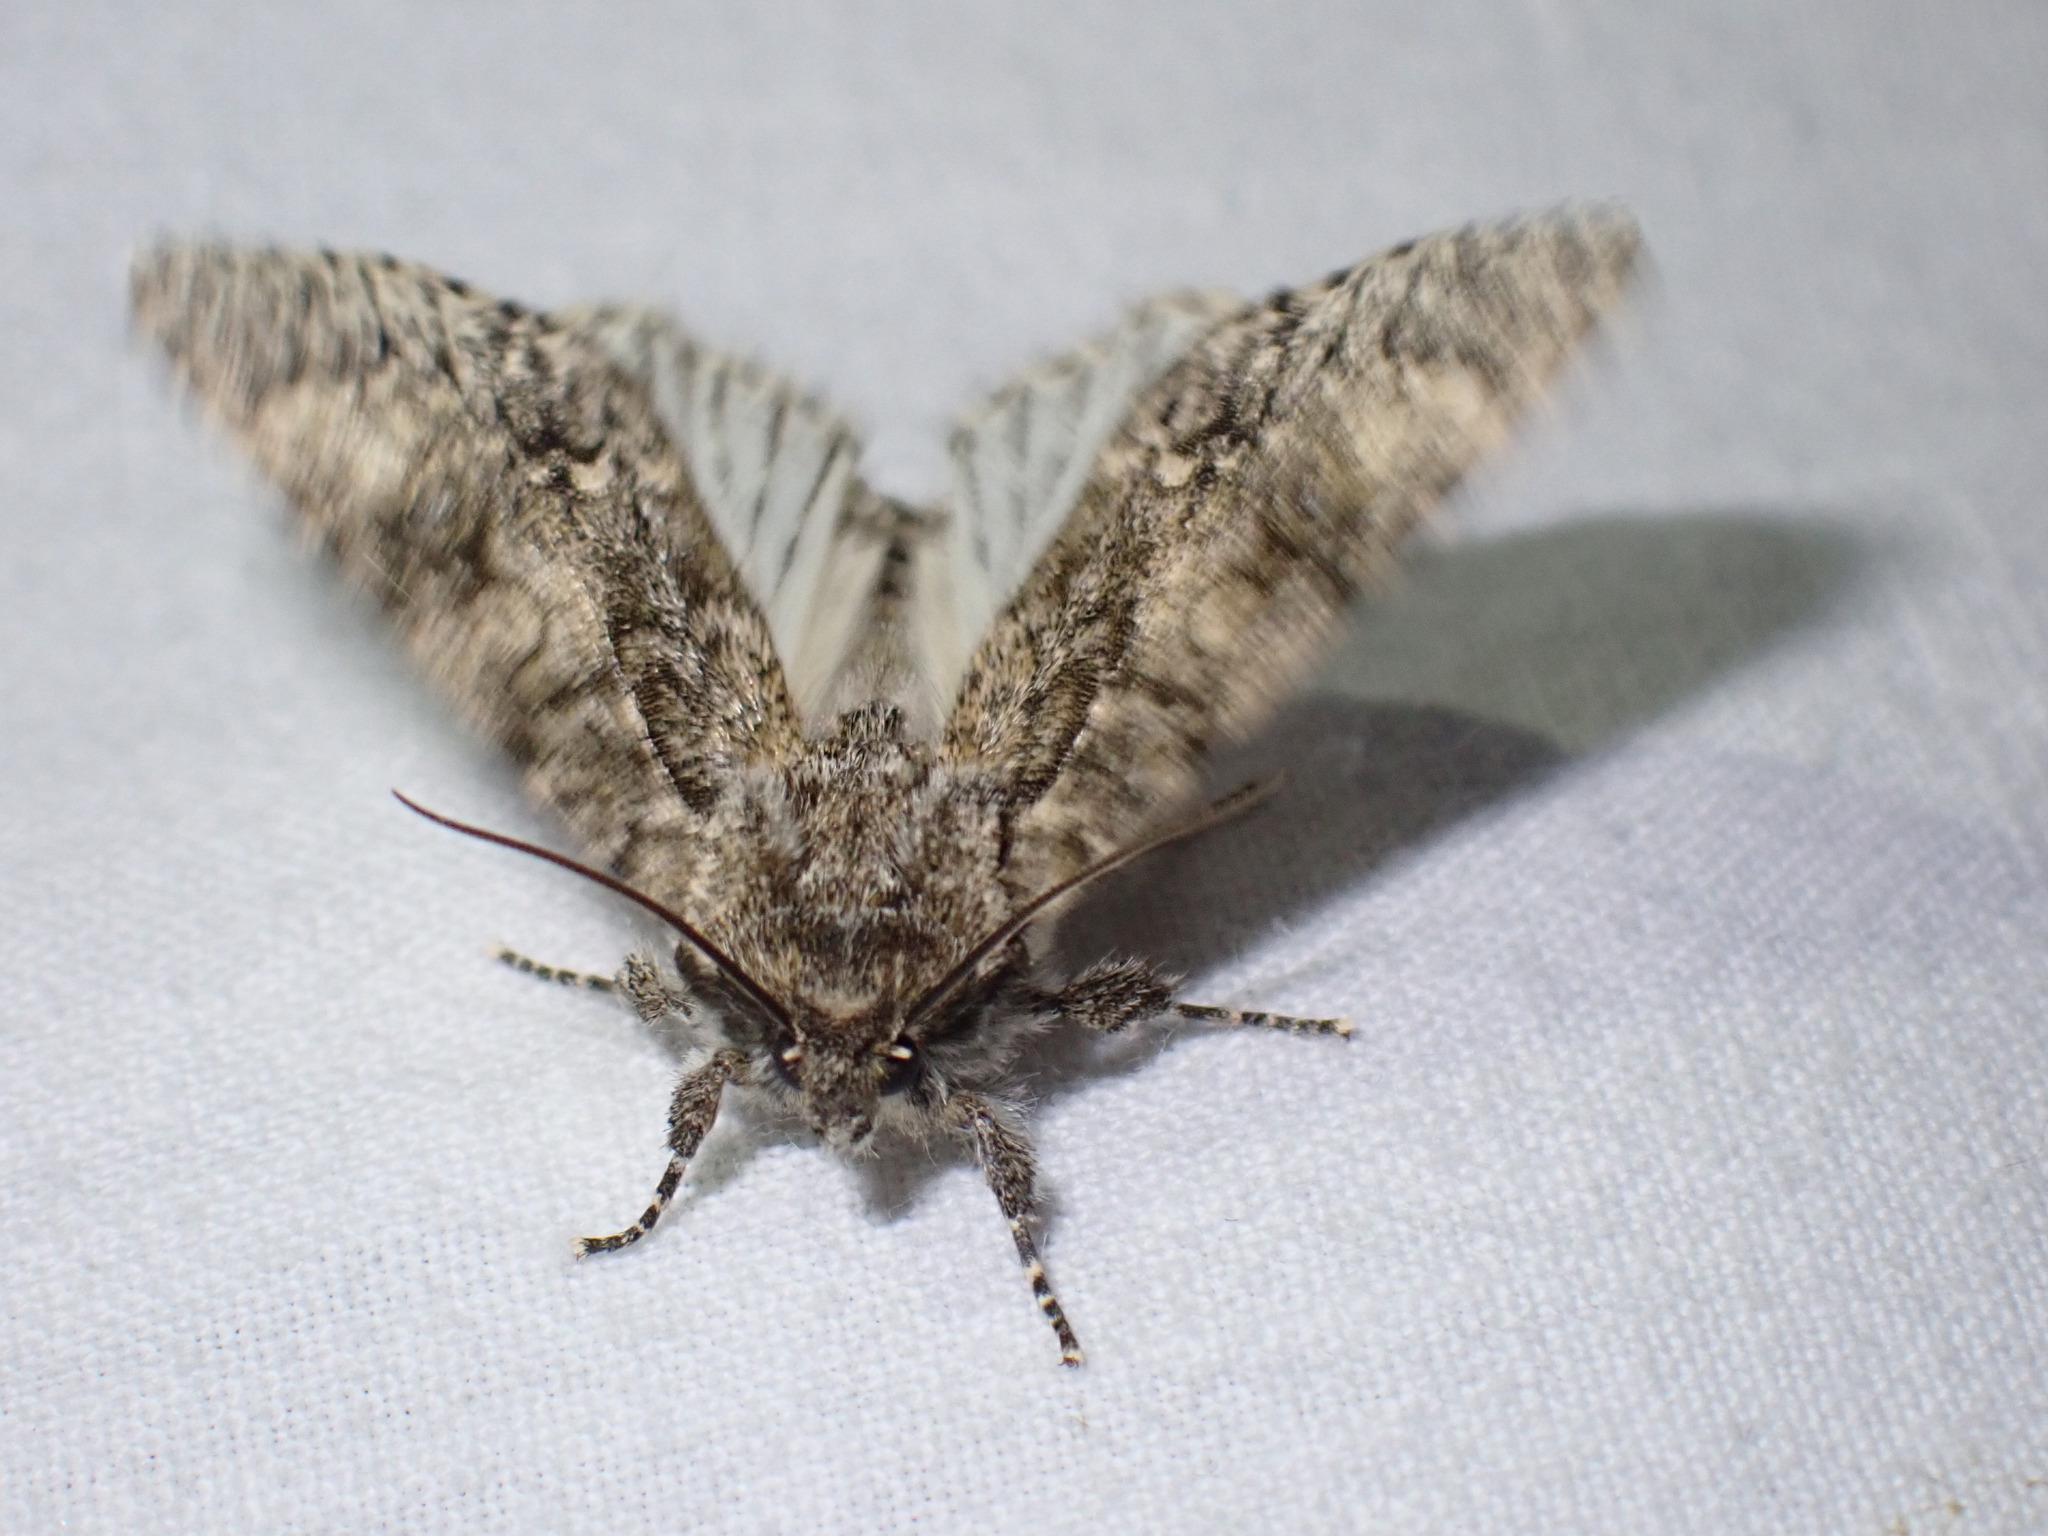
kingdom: Animalia
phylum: Arthropoda
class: Insecta
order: Lepidoptera
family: Noctuidae
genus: Acronicta
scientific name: Acronicta megacephala
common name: Poplar grey
